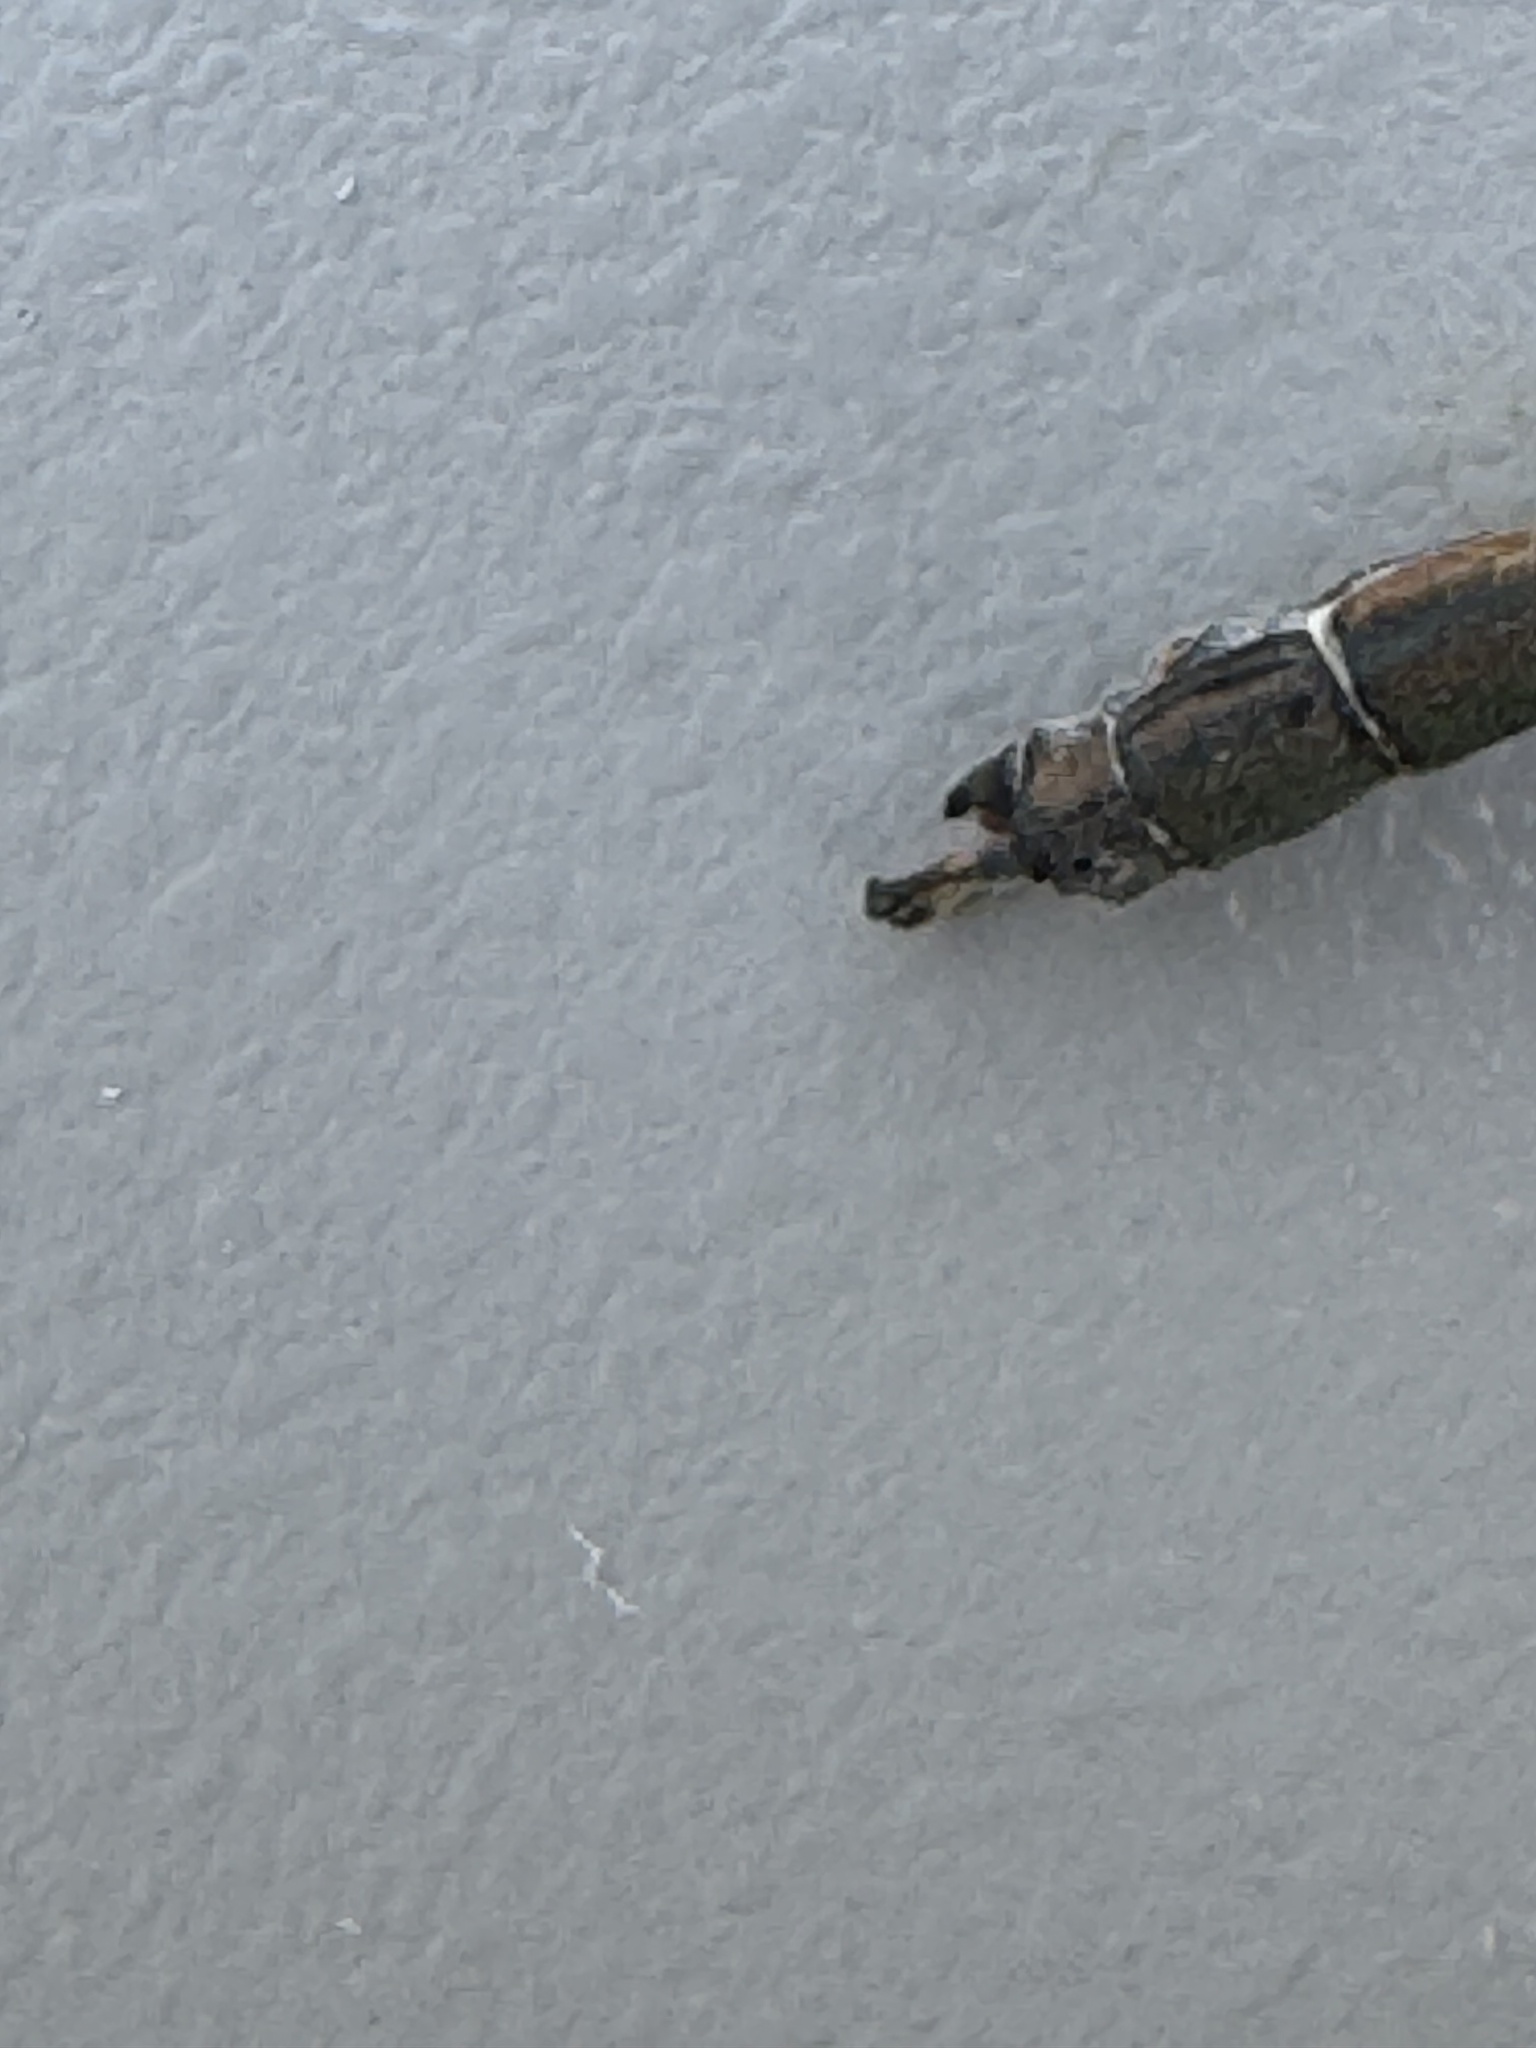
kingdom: Animalia
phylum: Arthropoda
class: Insecta
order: Odonata
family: Lestidae
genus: Chalcolestes
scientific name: Chalcolestes viridis
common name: Green emerald damselfly
